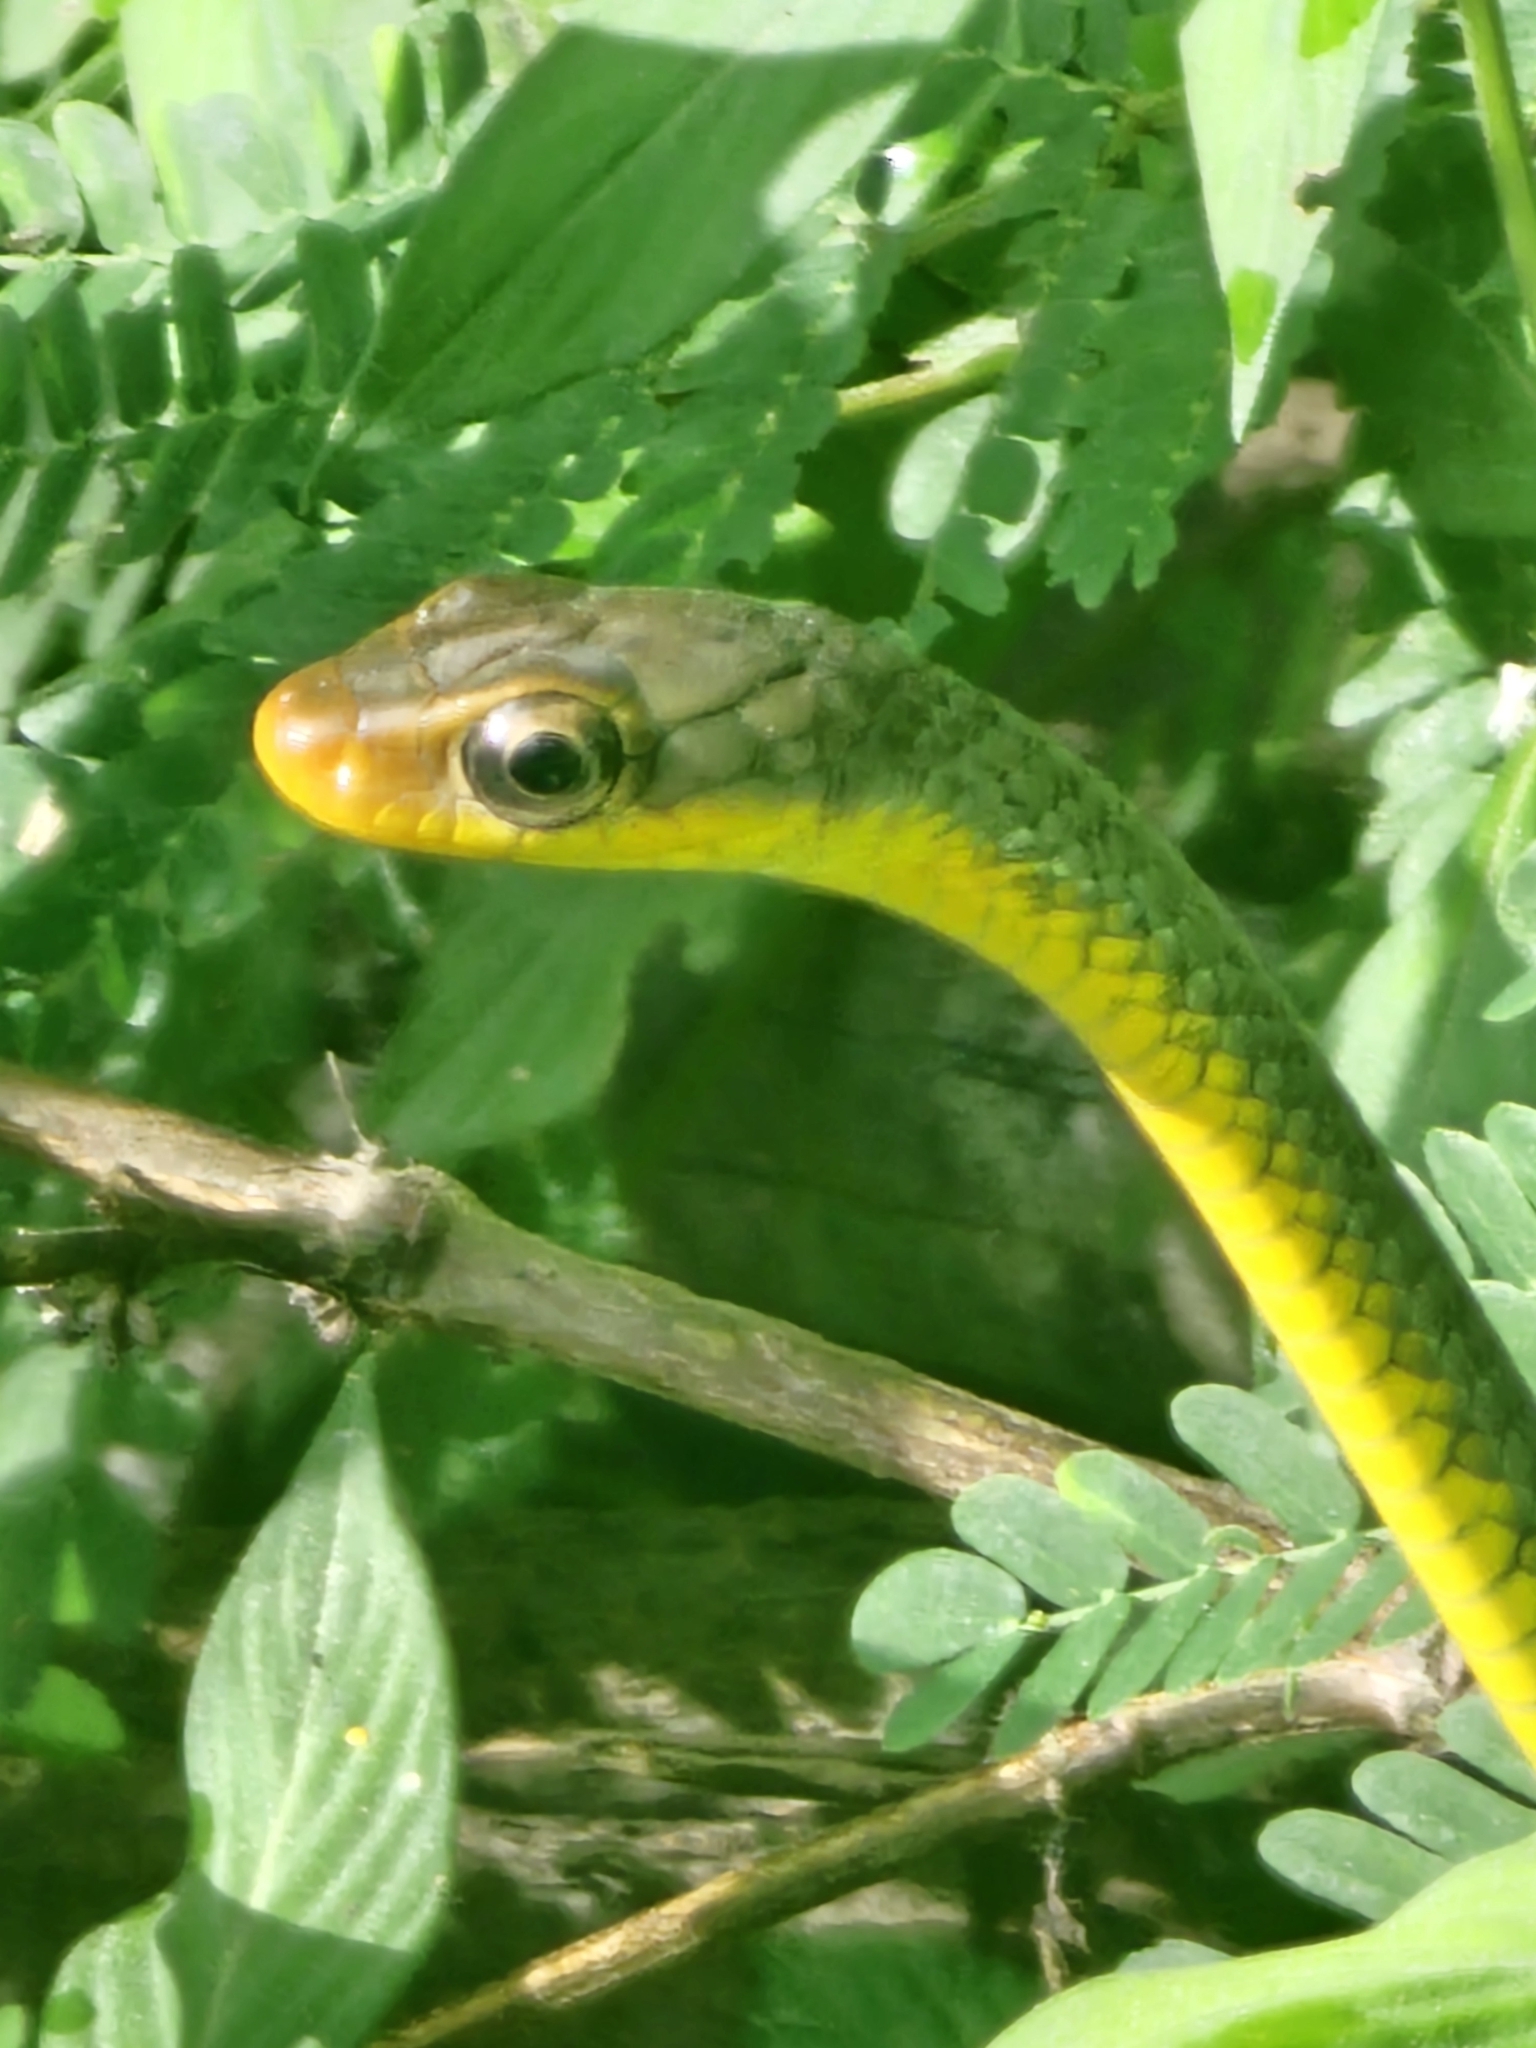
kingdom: Animalia
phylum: Chordata
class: Squamata
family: Colubridae
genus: Chironius
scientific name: Chironius carinatus
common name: Sipo
